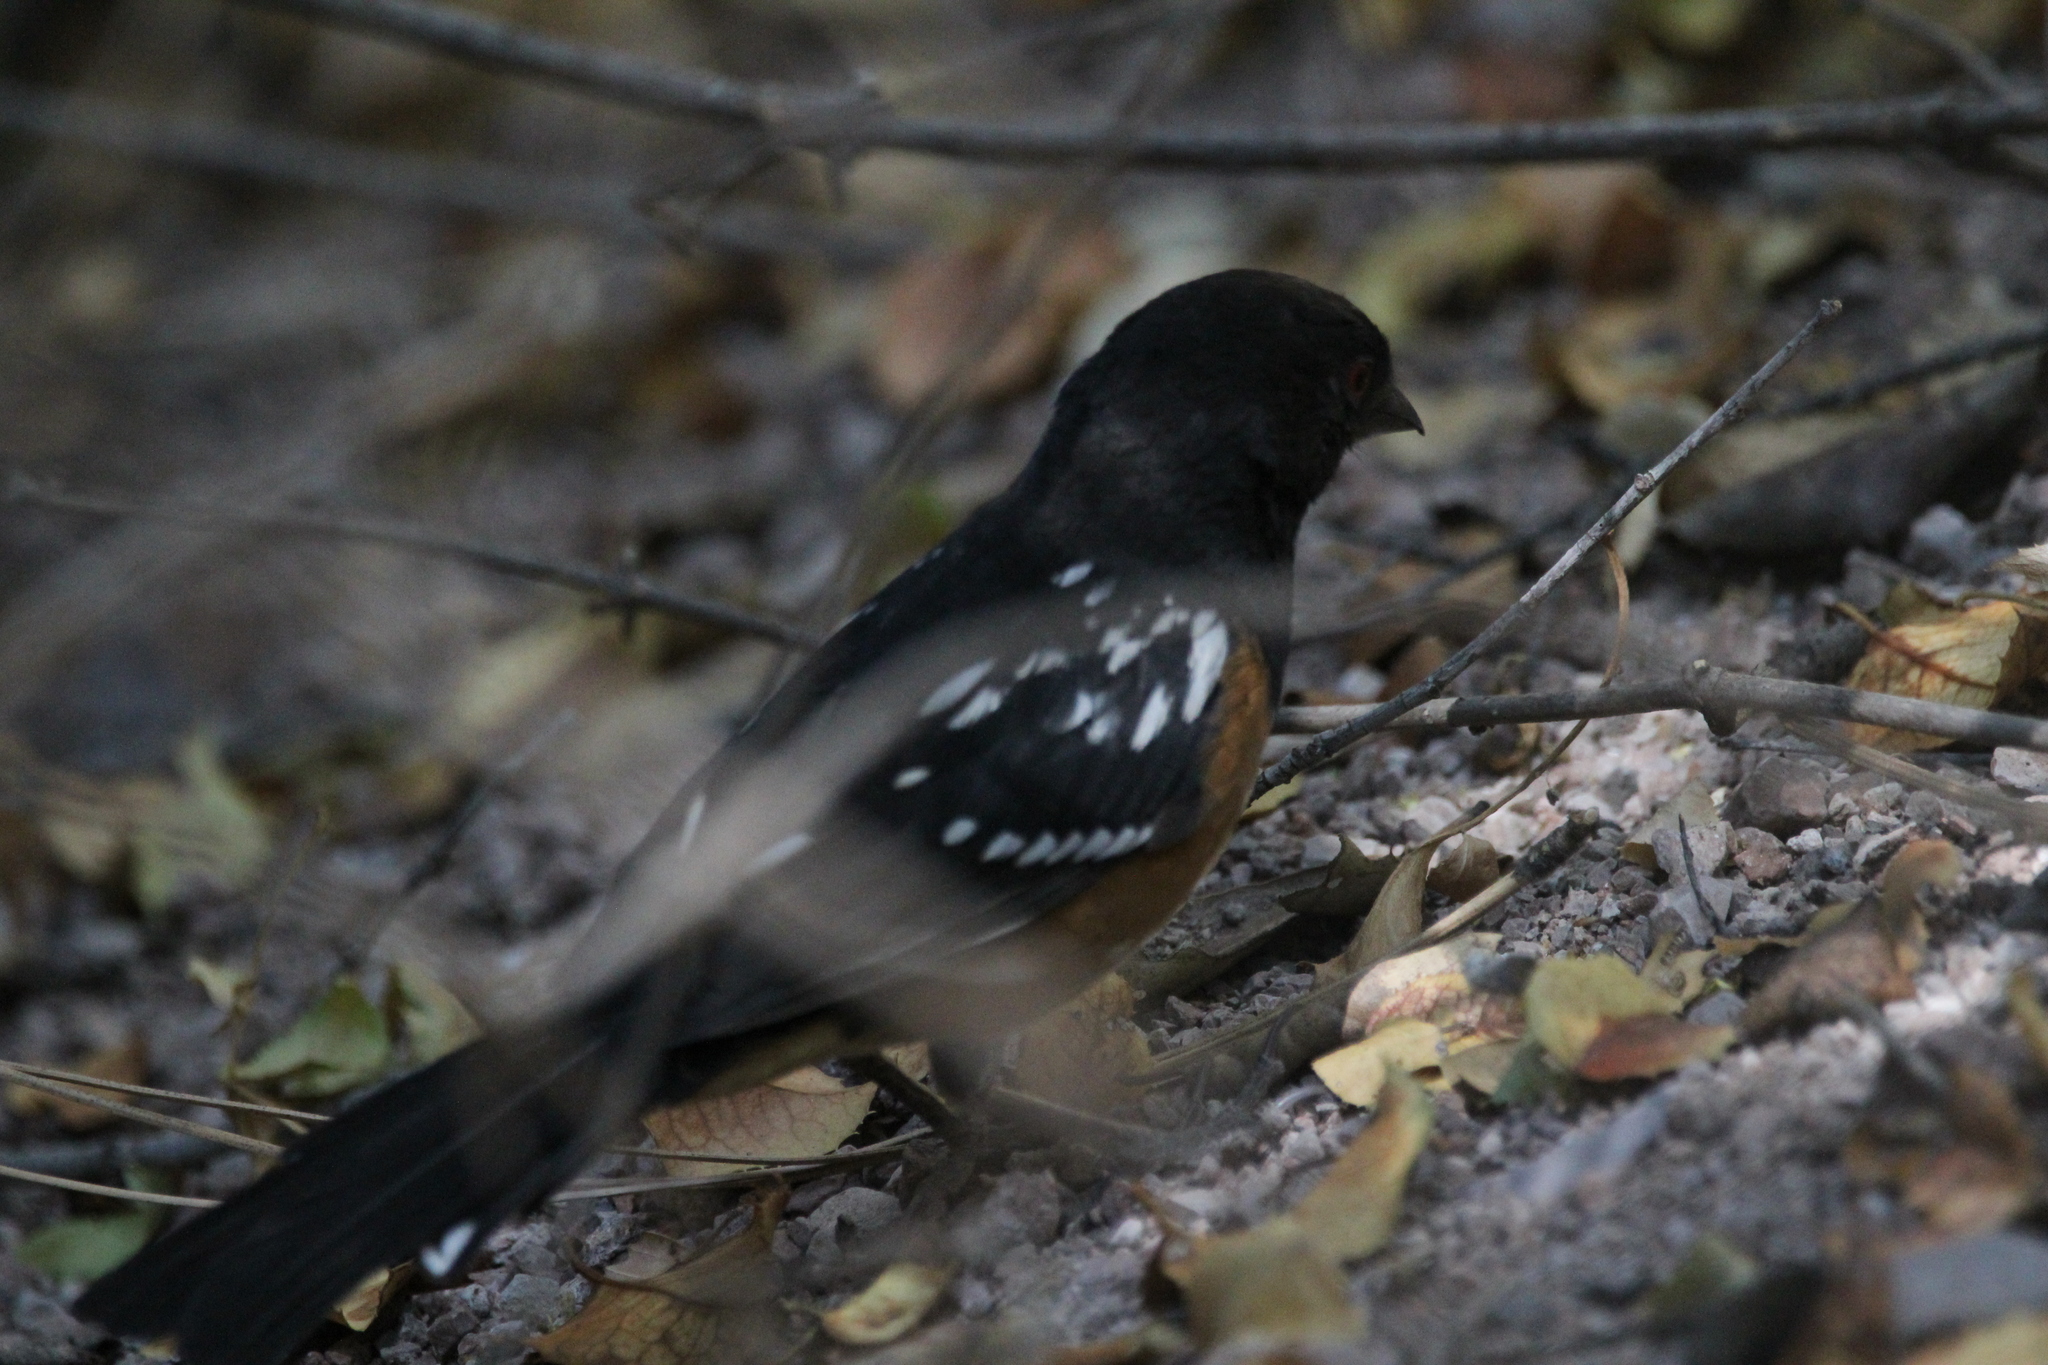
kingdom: Animalia
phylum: Chordata
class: Aves
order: Passeriformes
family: Passerellidae
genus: Pipilo
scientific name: Pipilo maculatus
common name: Spotted towhee
